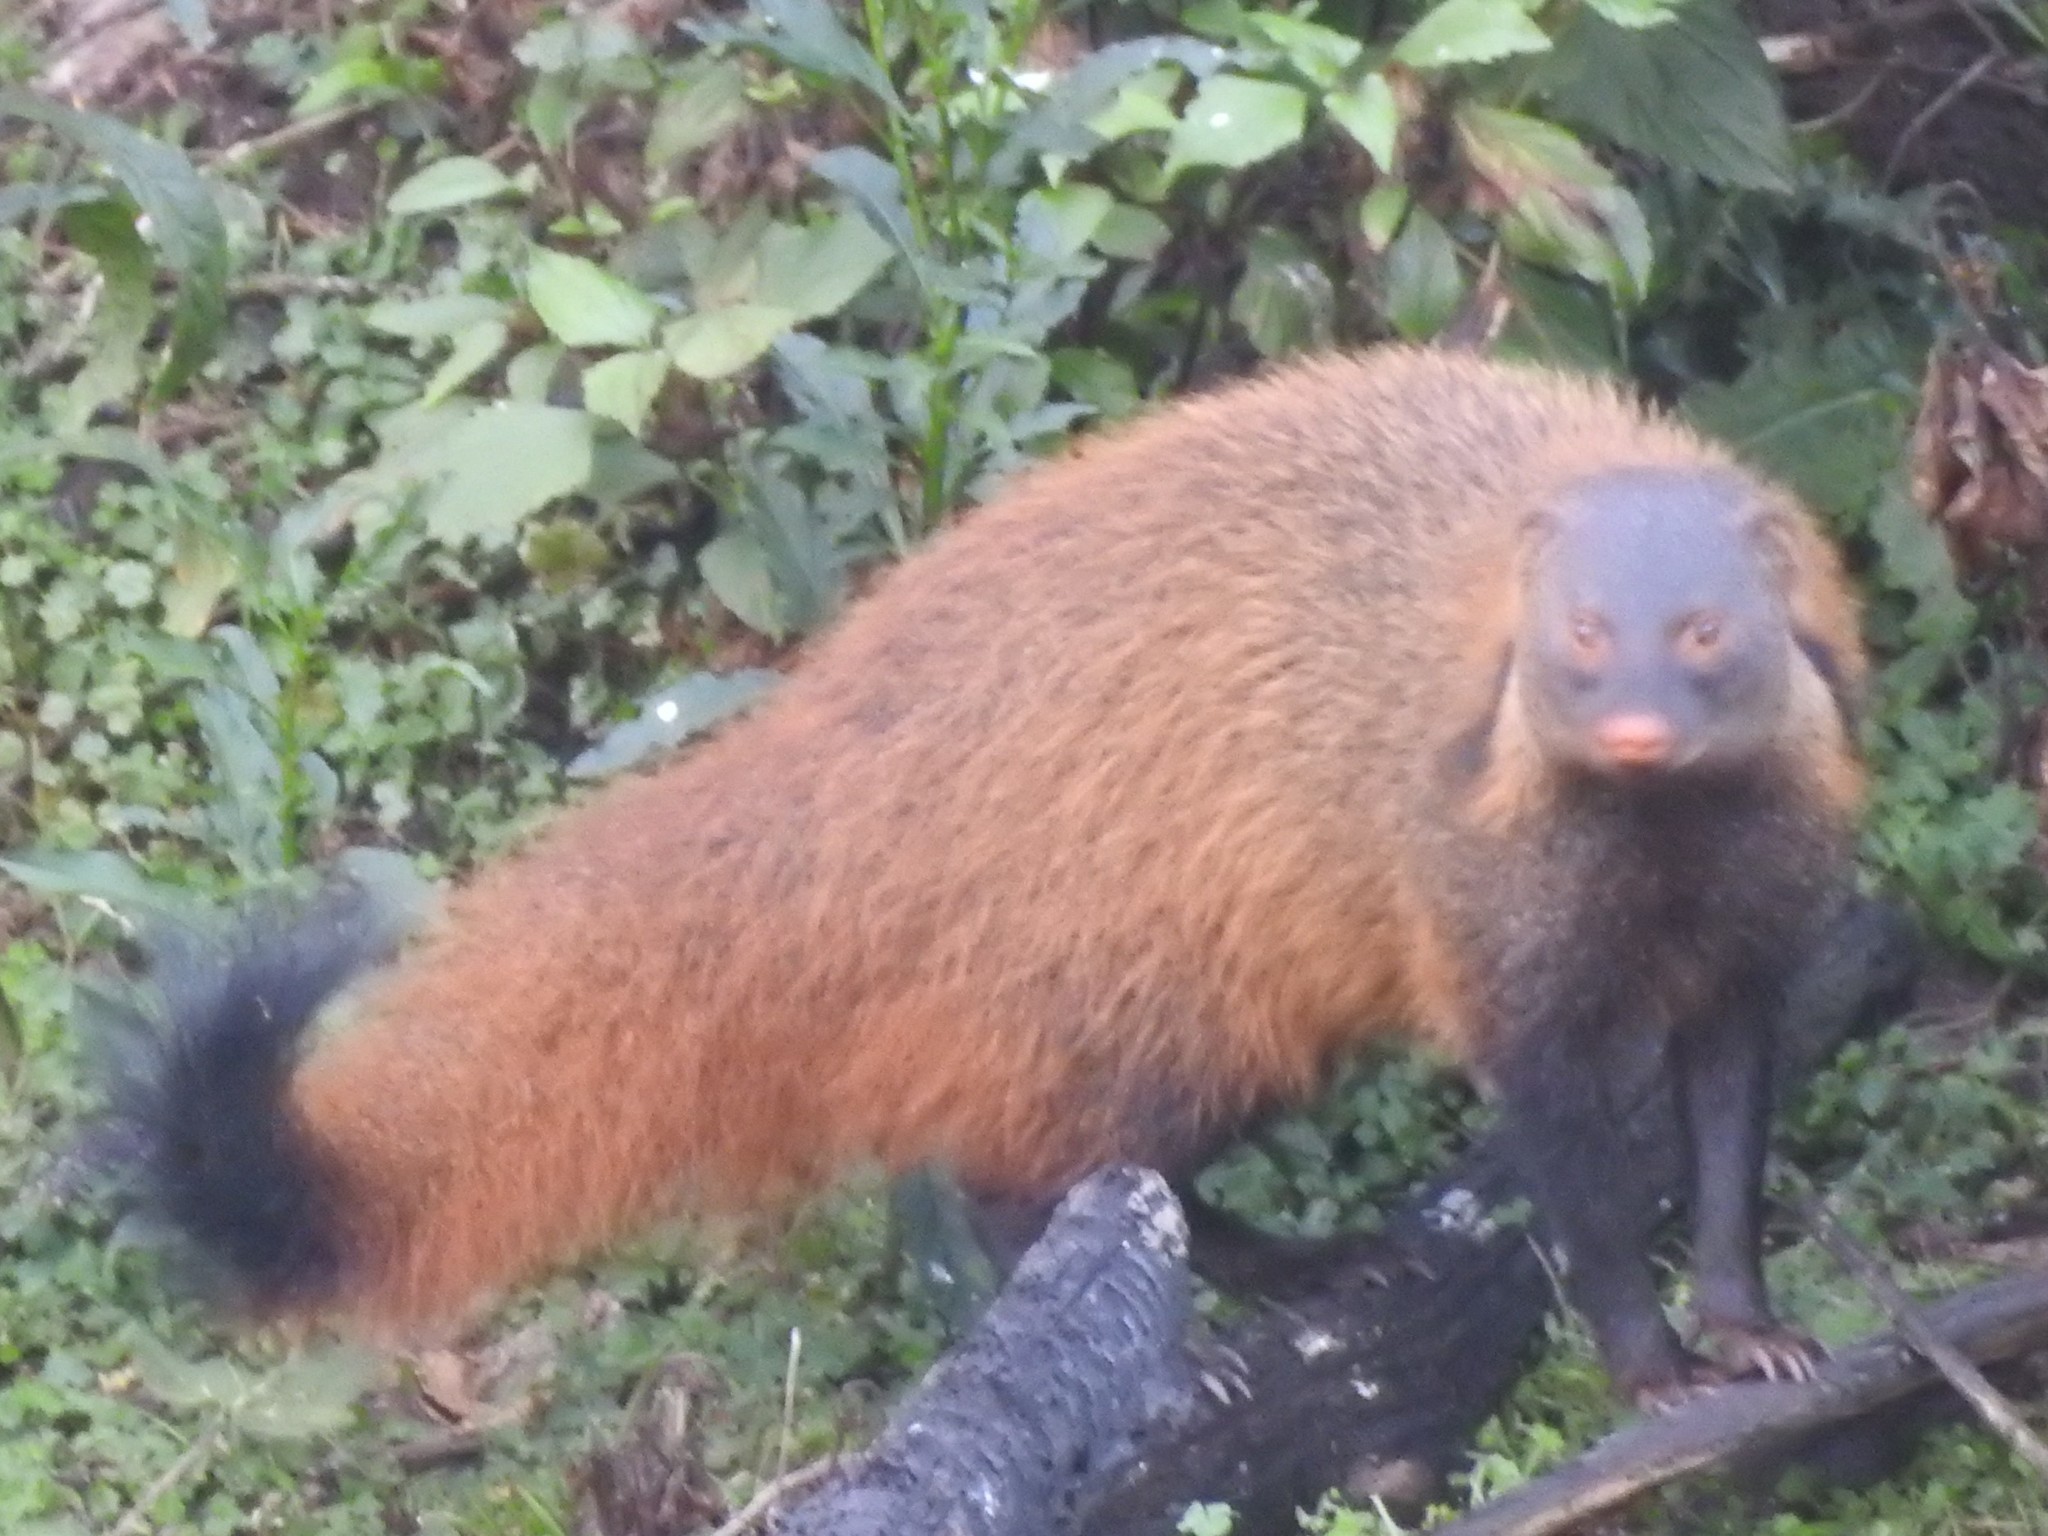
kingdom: Animalia
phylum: Chordata
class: Mammalia
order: Carnivora
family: Herpestidae
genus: Herpestes
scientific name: Herpestes vitticollis
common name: Stripe-necked mongoose
